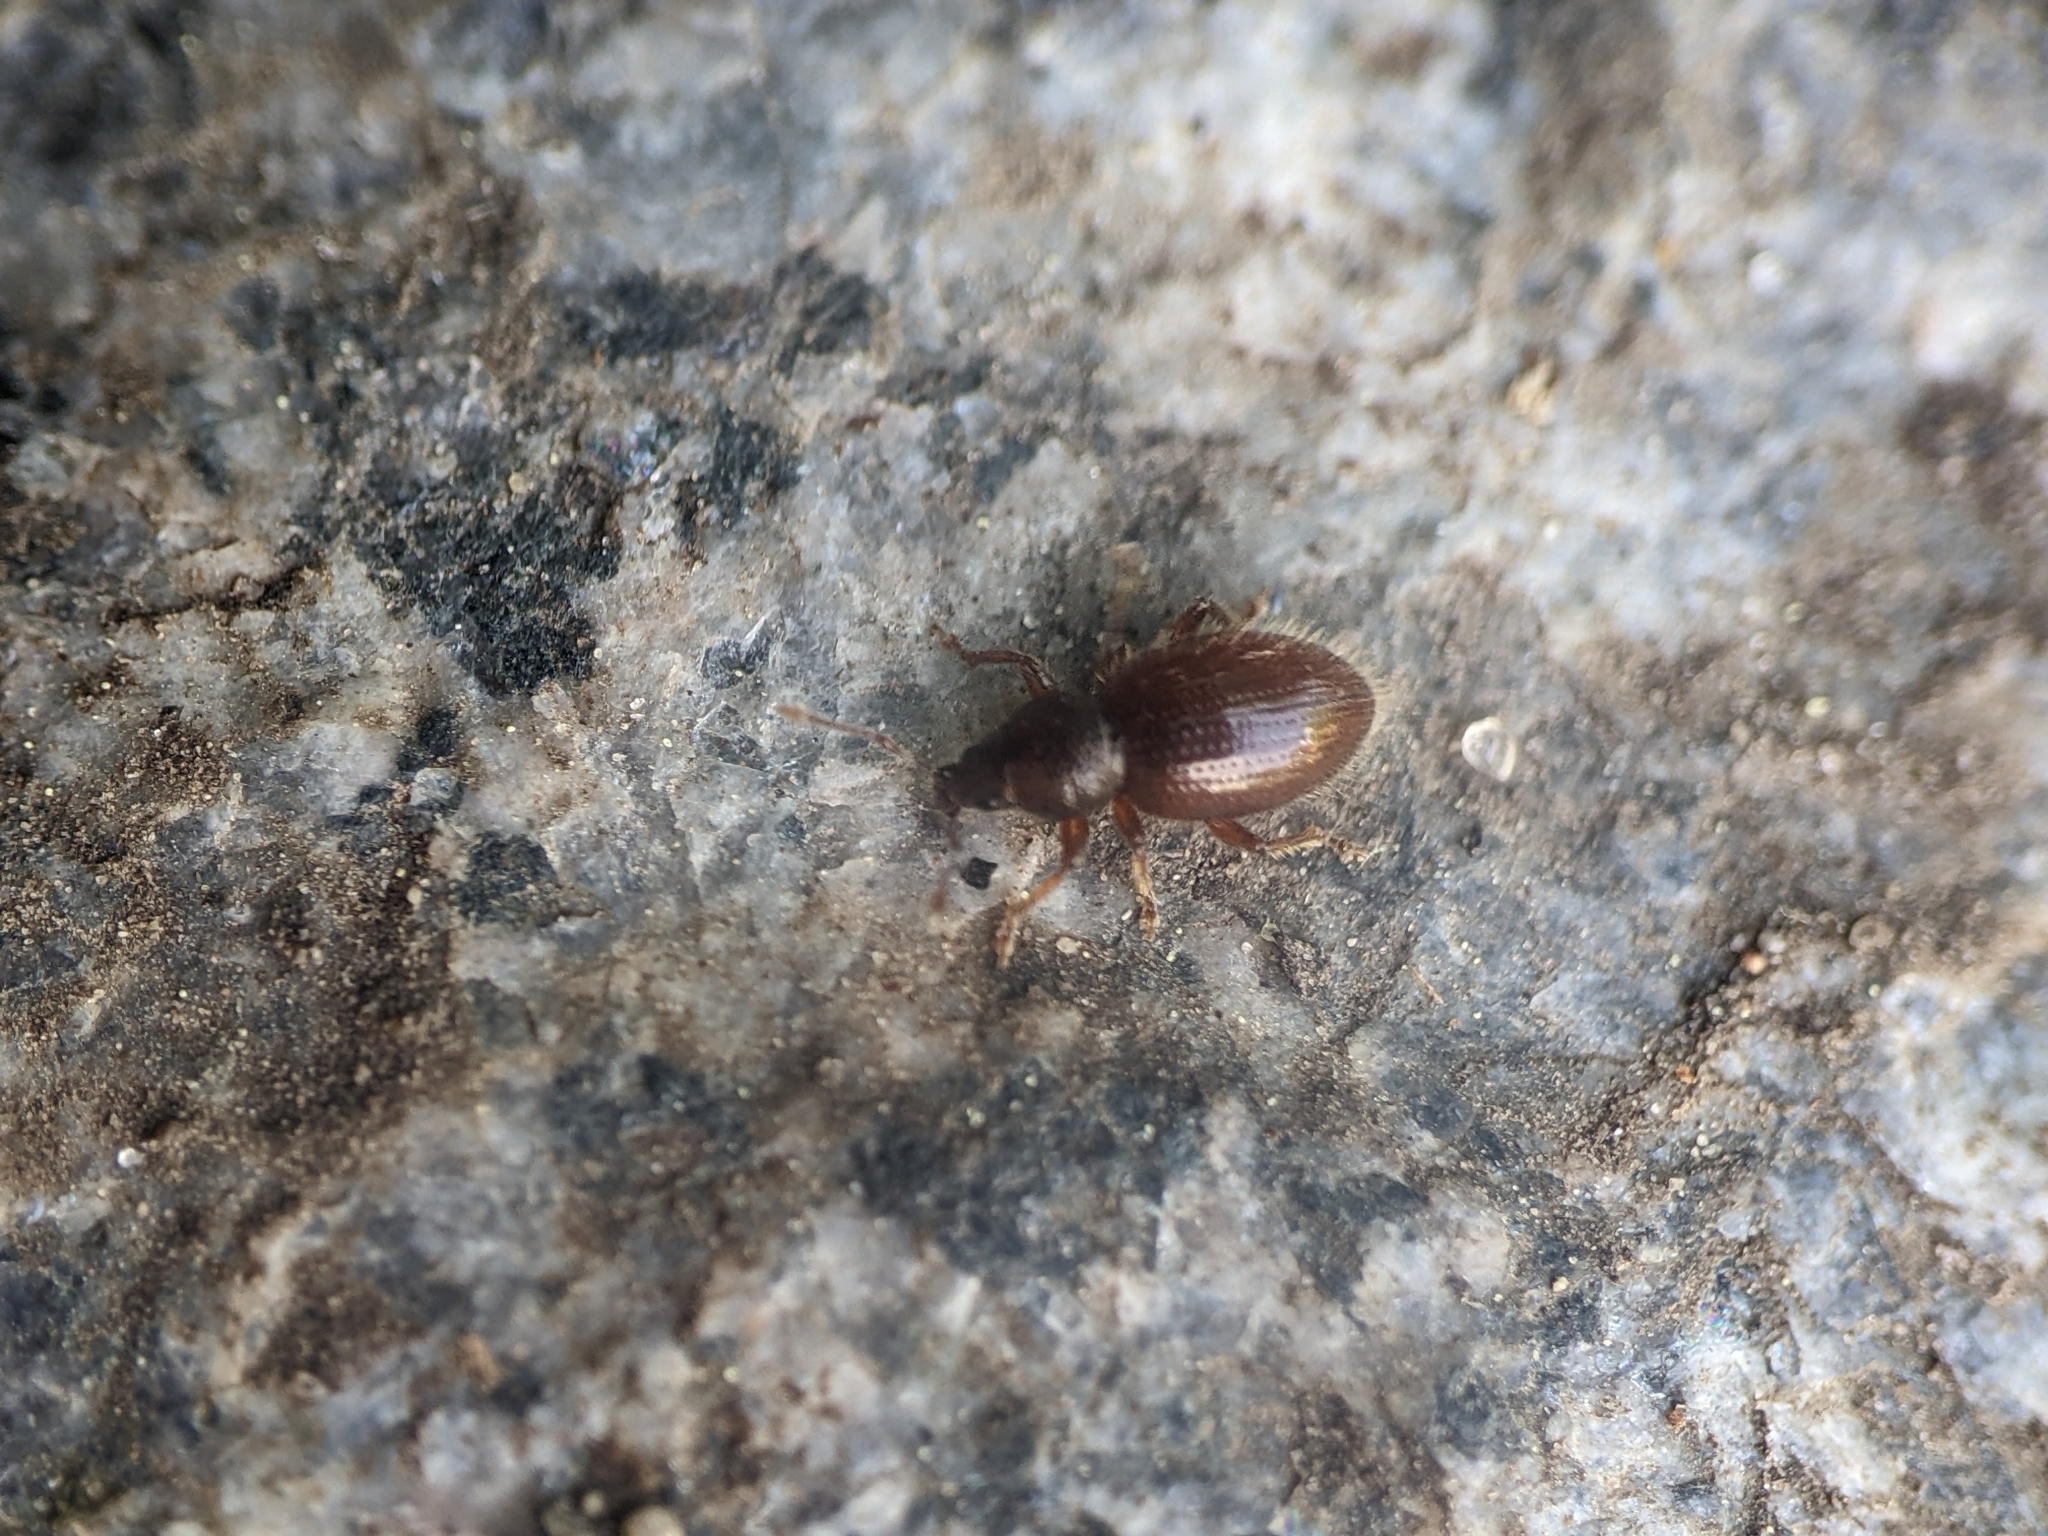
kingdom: Animalia
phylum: Arthropoda
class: Insecta
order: Coleoptera
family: Curculionidae
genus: Exomias
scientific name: Exomias pellucidus
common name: Hairy spider weevil
